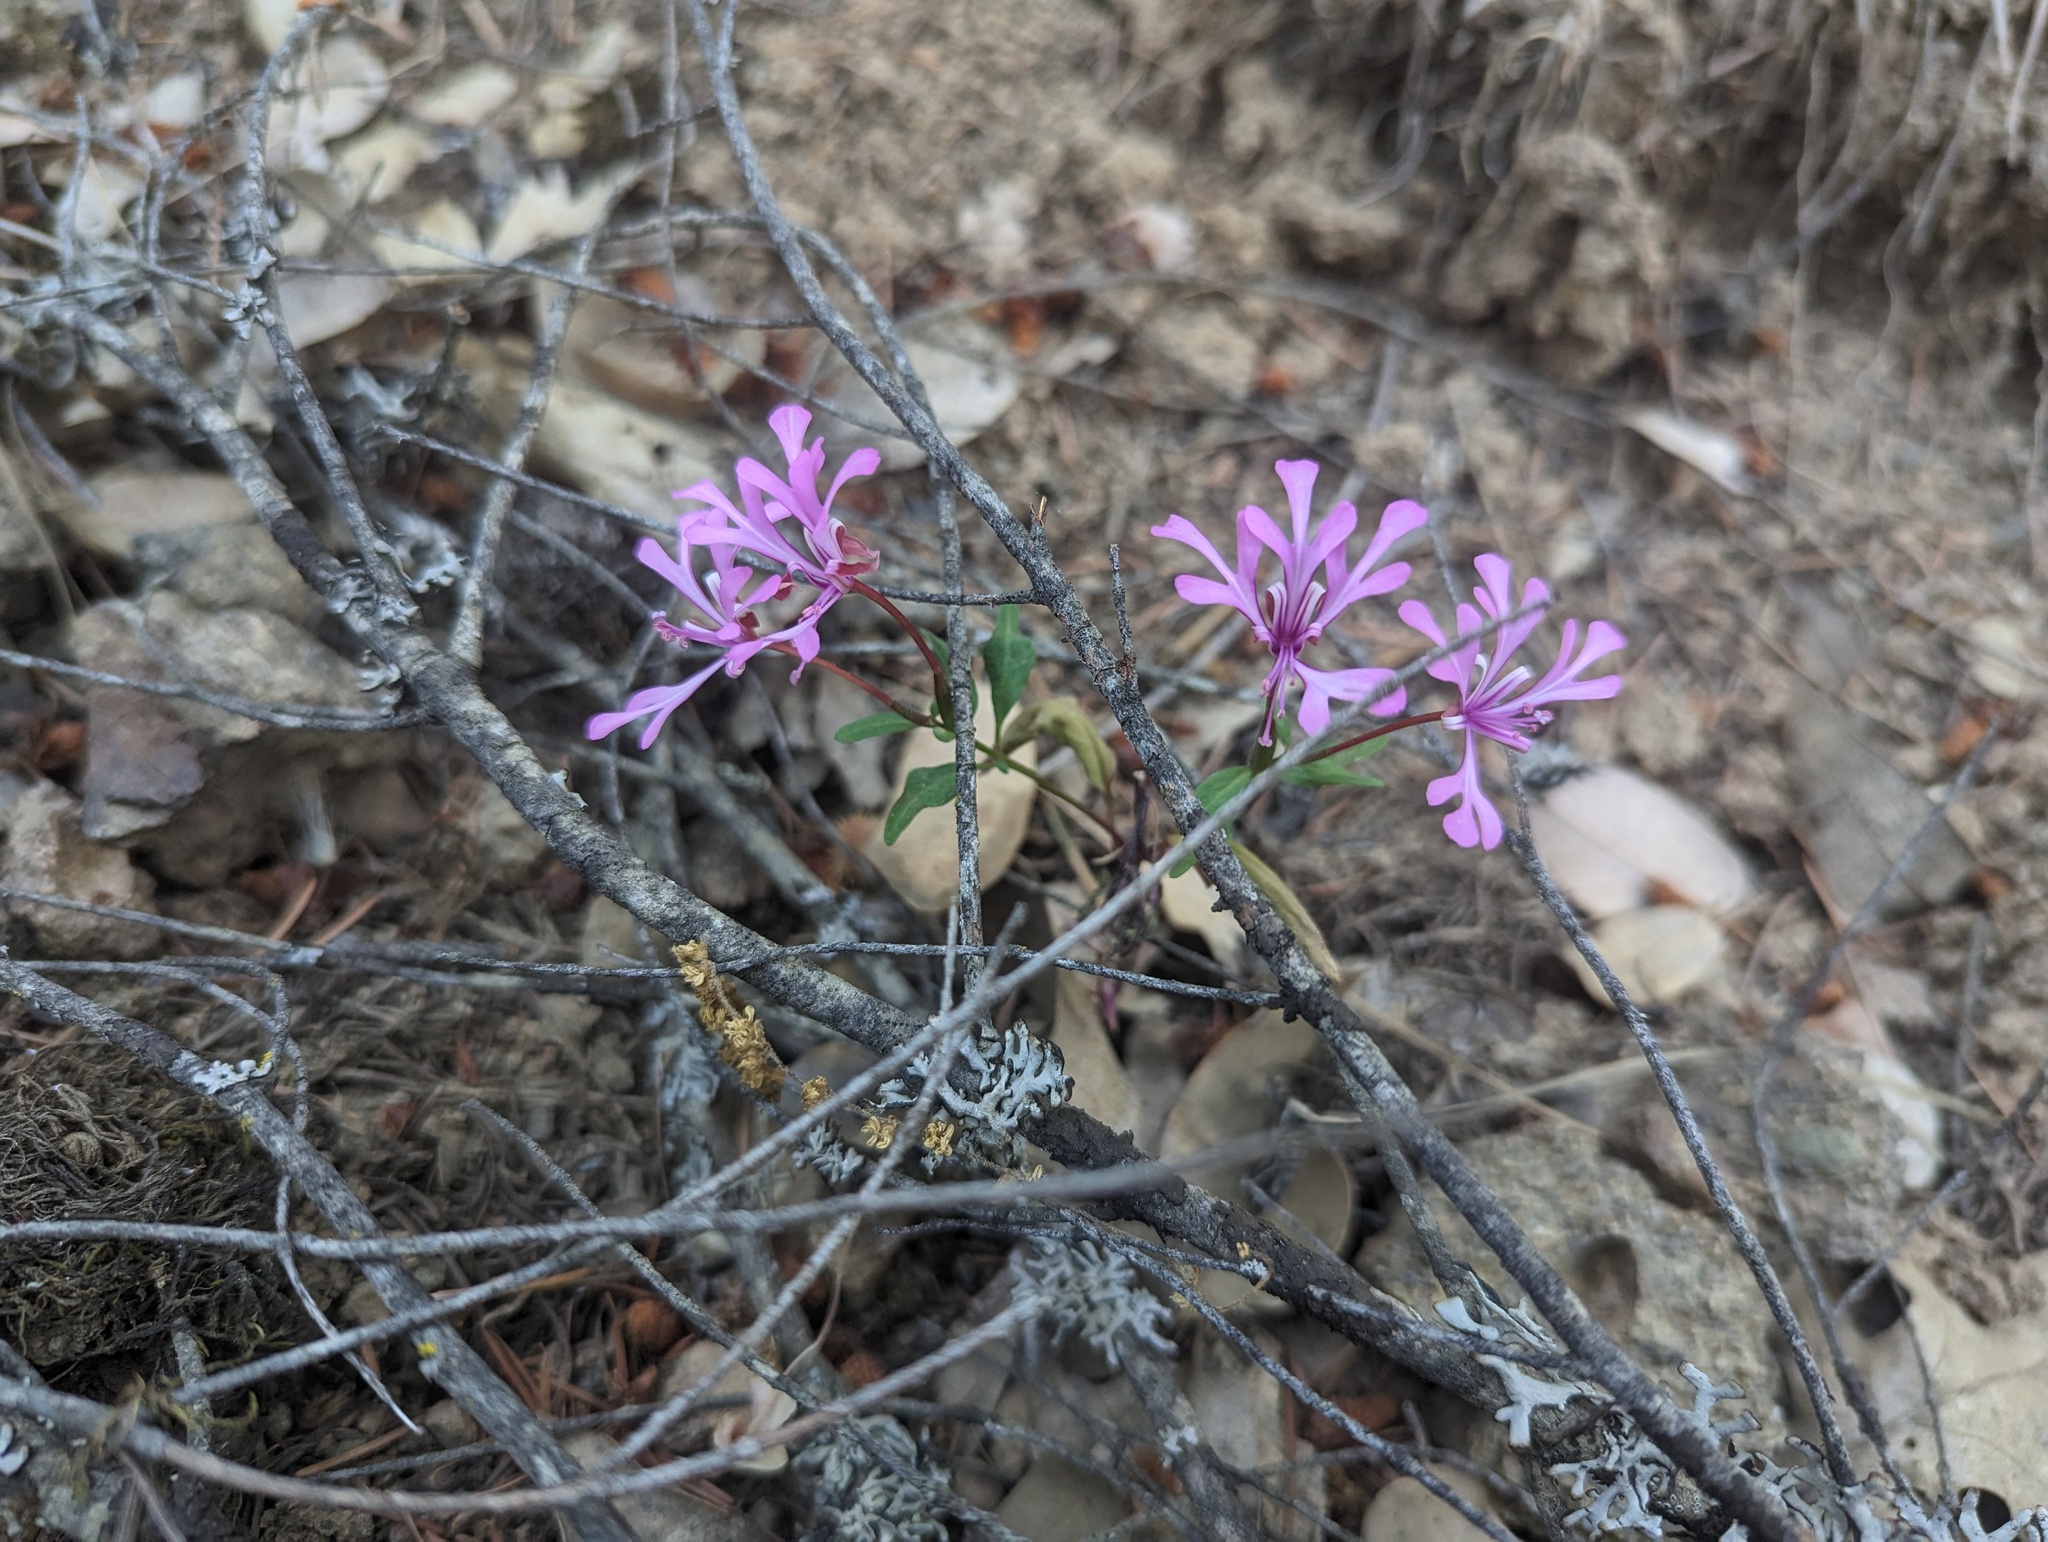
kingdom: Plantae
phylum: Tracheophyta
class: Magnoliopsida
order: Myrtales
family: Onagraceae
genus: Clarkia
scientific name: Clarkia concinna
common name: Red-ribbons
